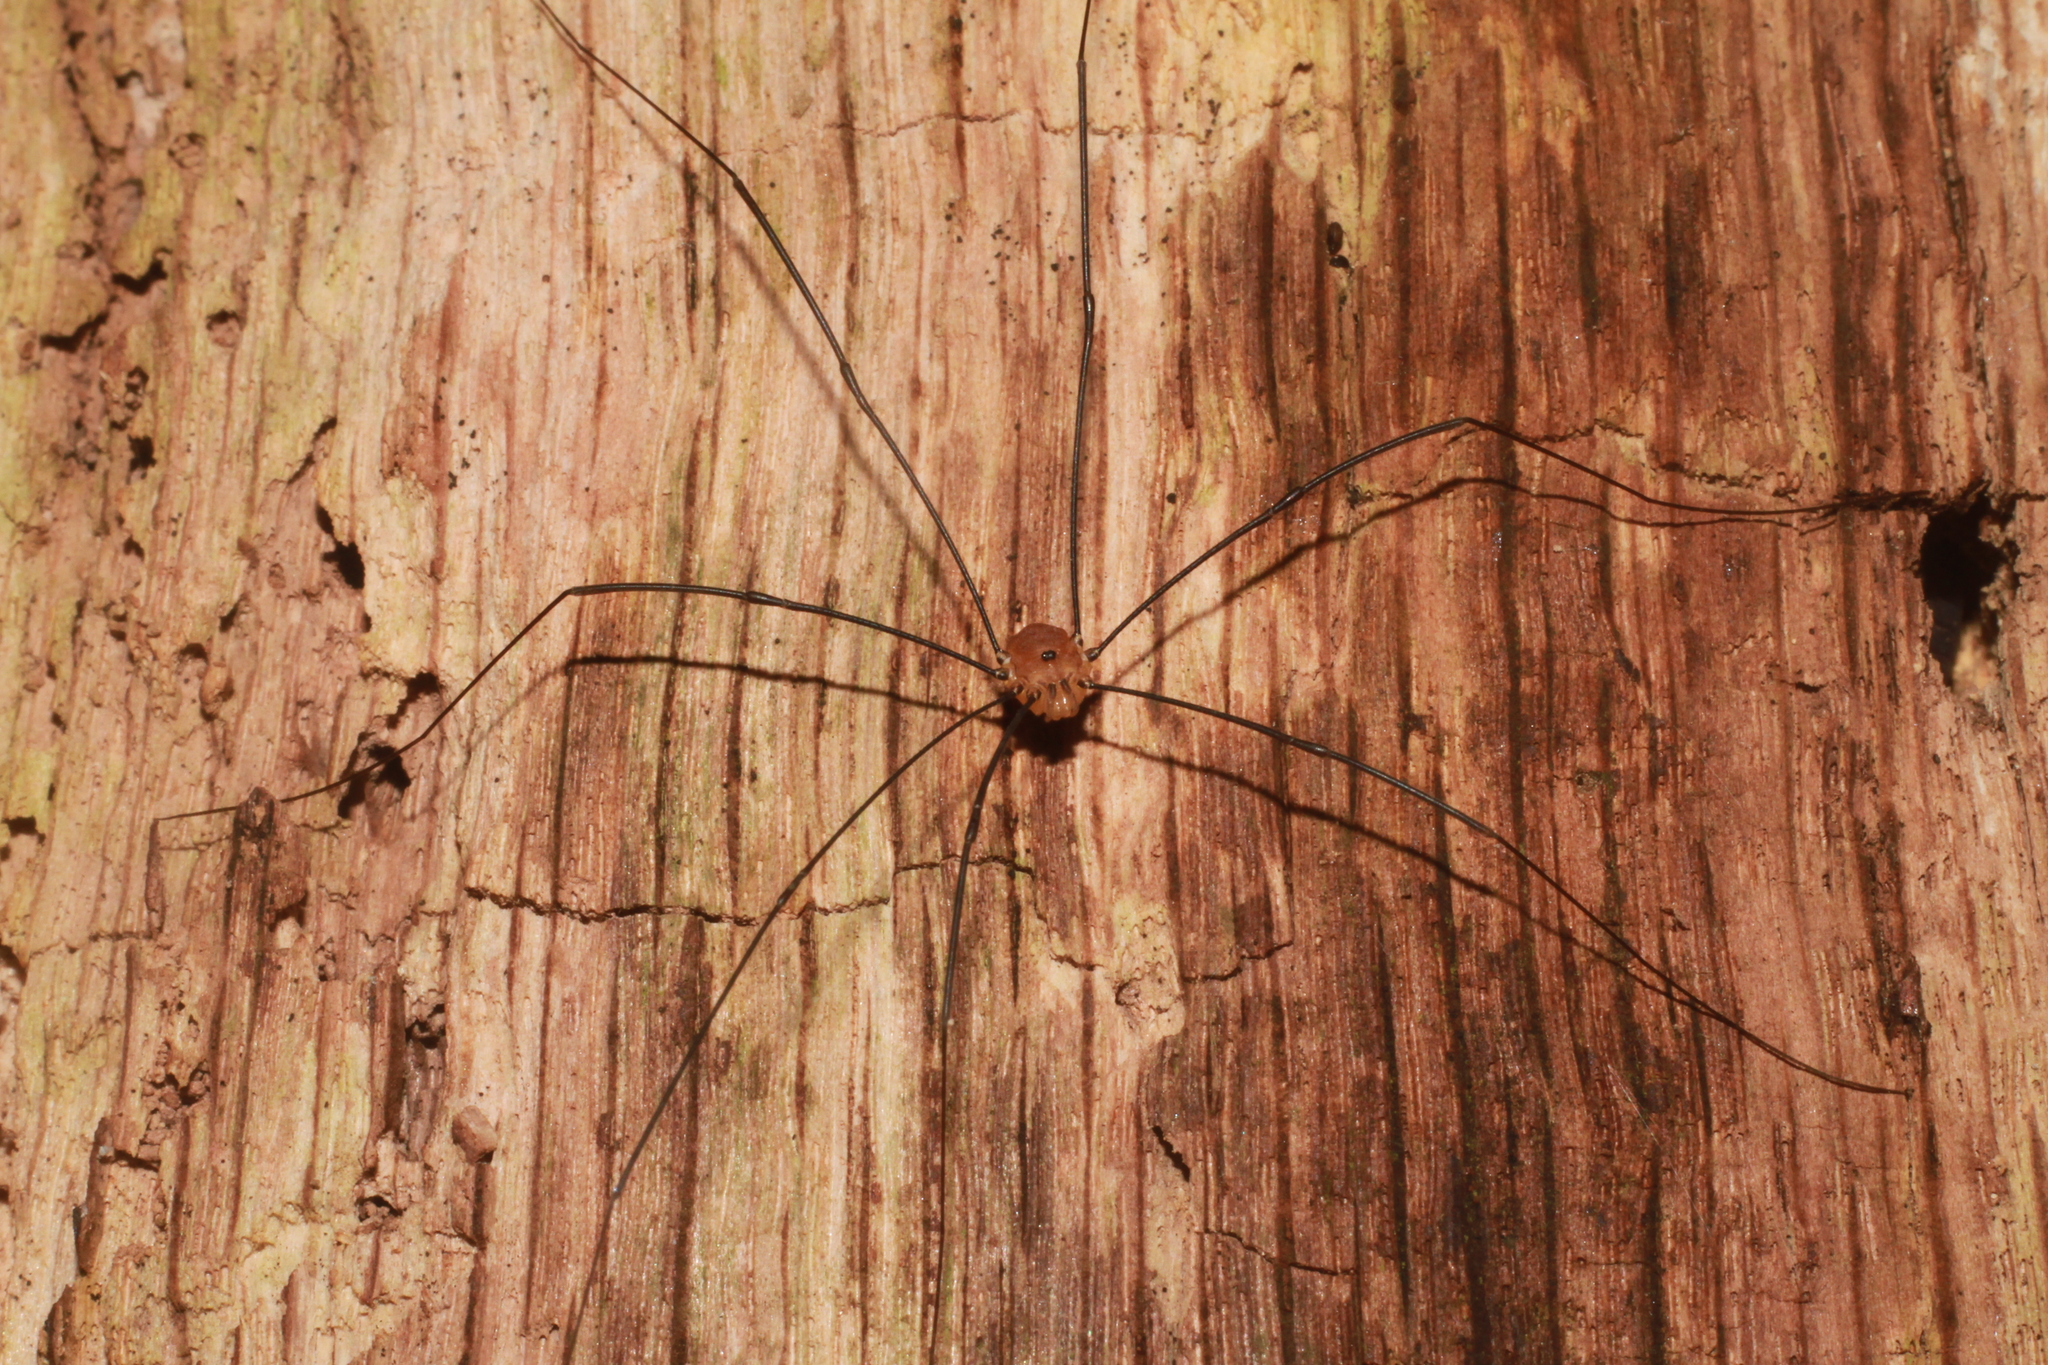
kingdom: Animalia
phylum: Arthropoda
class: Arachnida
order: Opiliones
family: Sclerosomatidae
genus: Leiobunum
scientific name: Leiobunum rotundum
